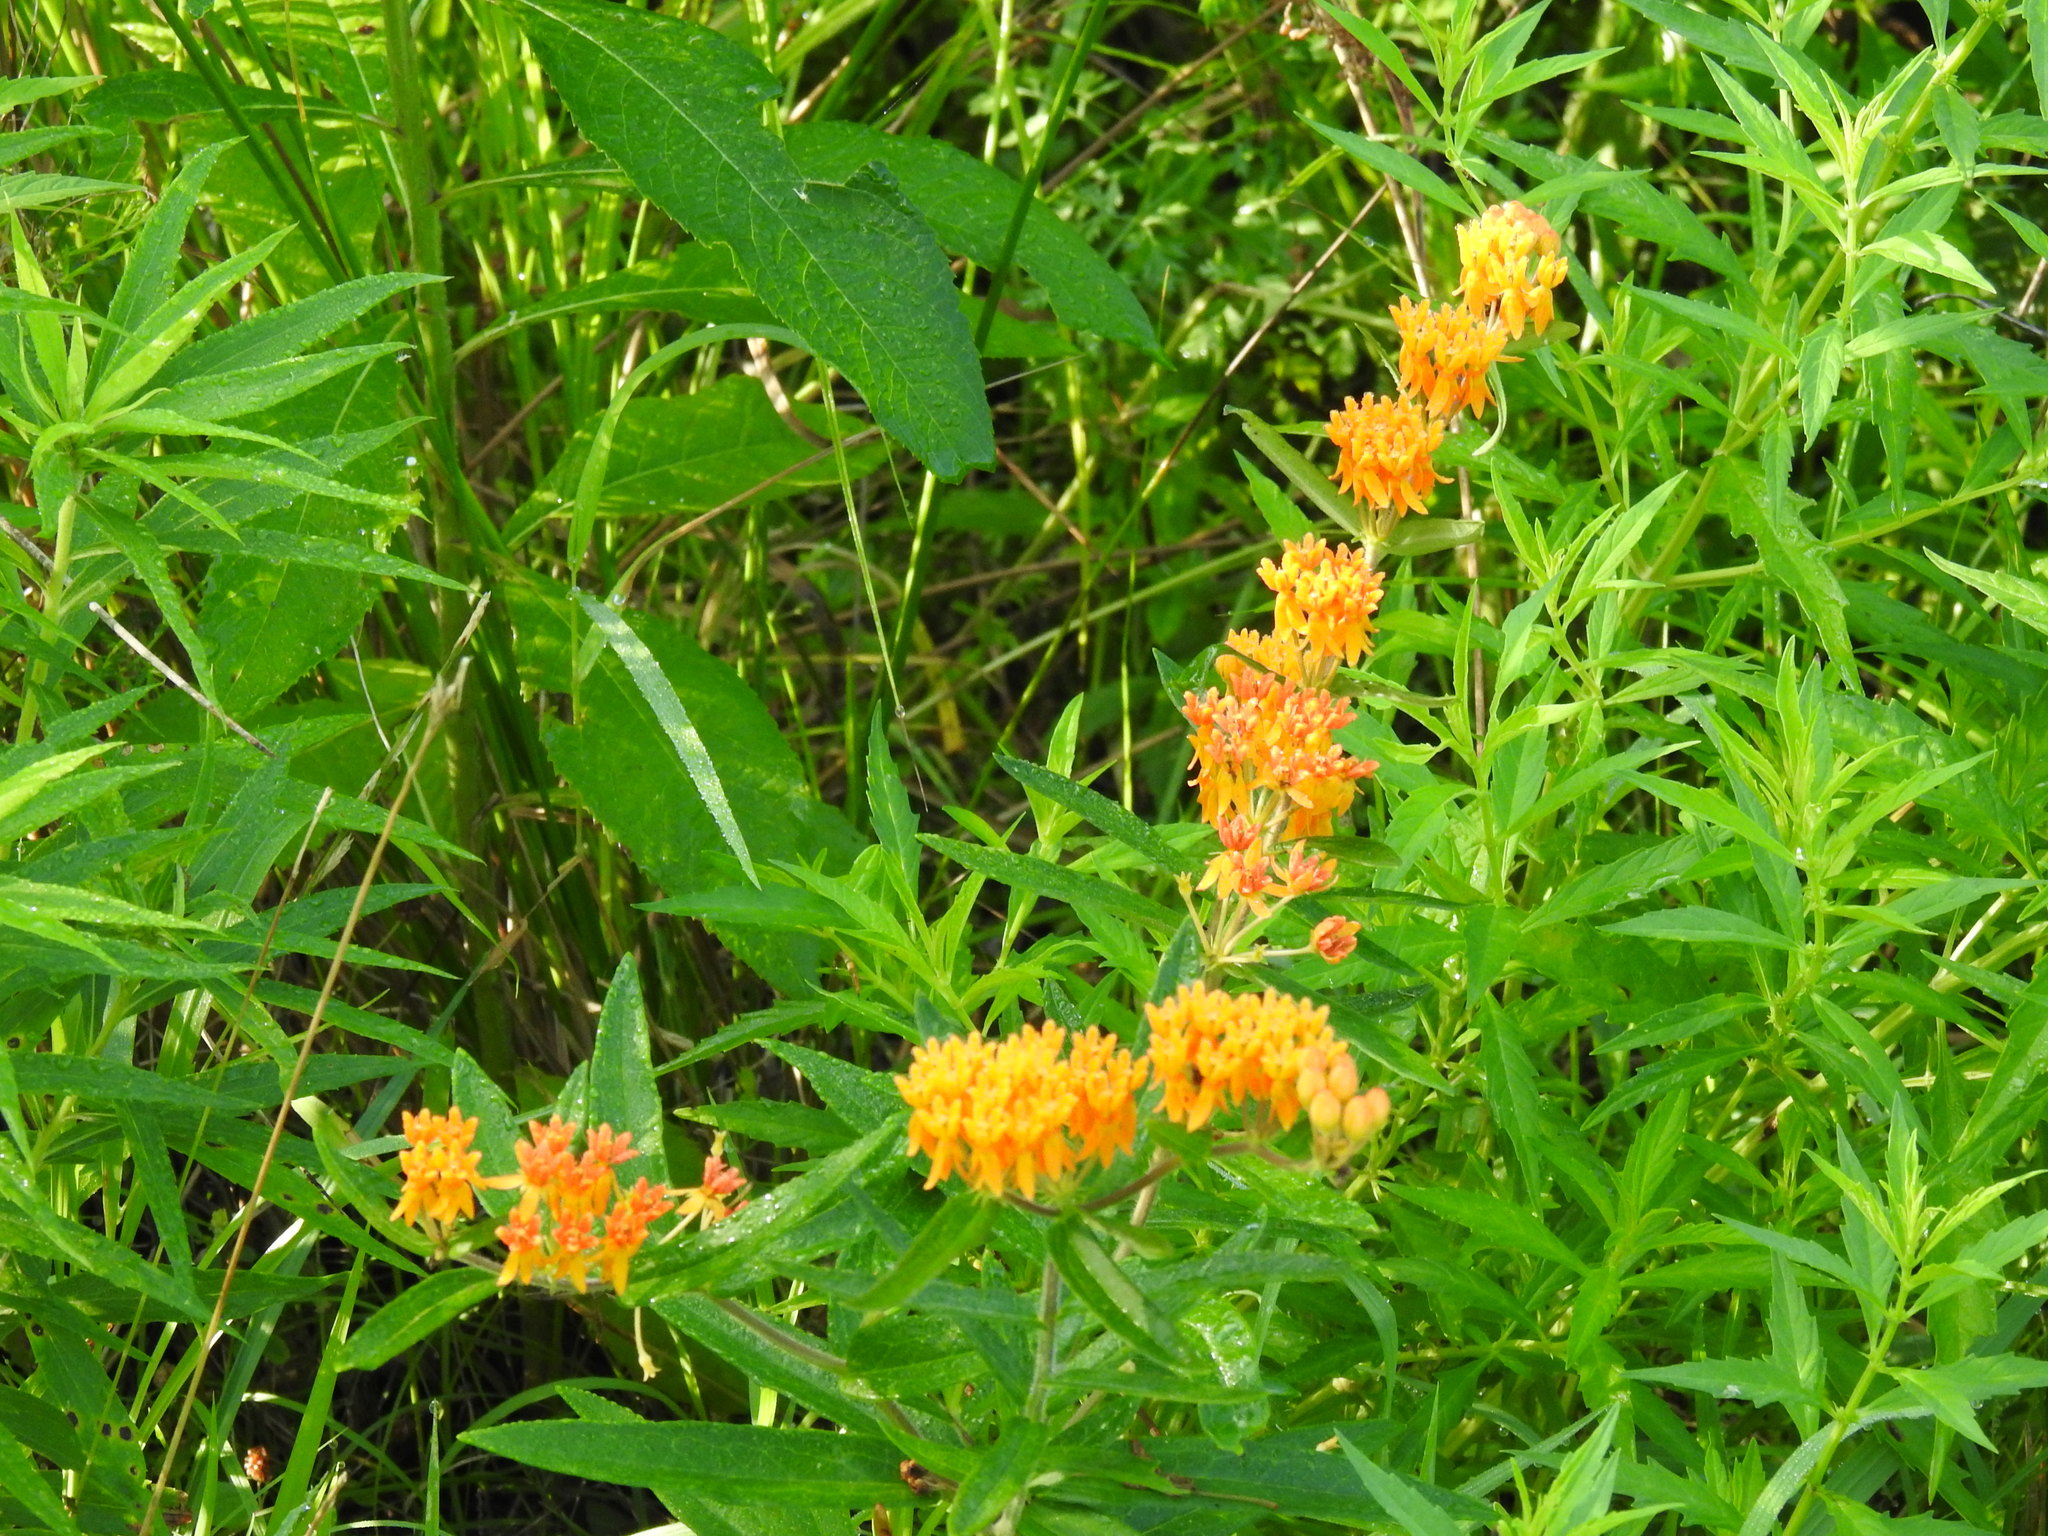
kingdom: Plantae
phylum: Tracheophyta
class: Magnoliopsida
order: Gentianales
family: Apocynaceae
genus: Asclepias
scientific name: Asclepias tuberosa
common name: Butterfly milkweed
